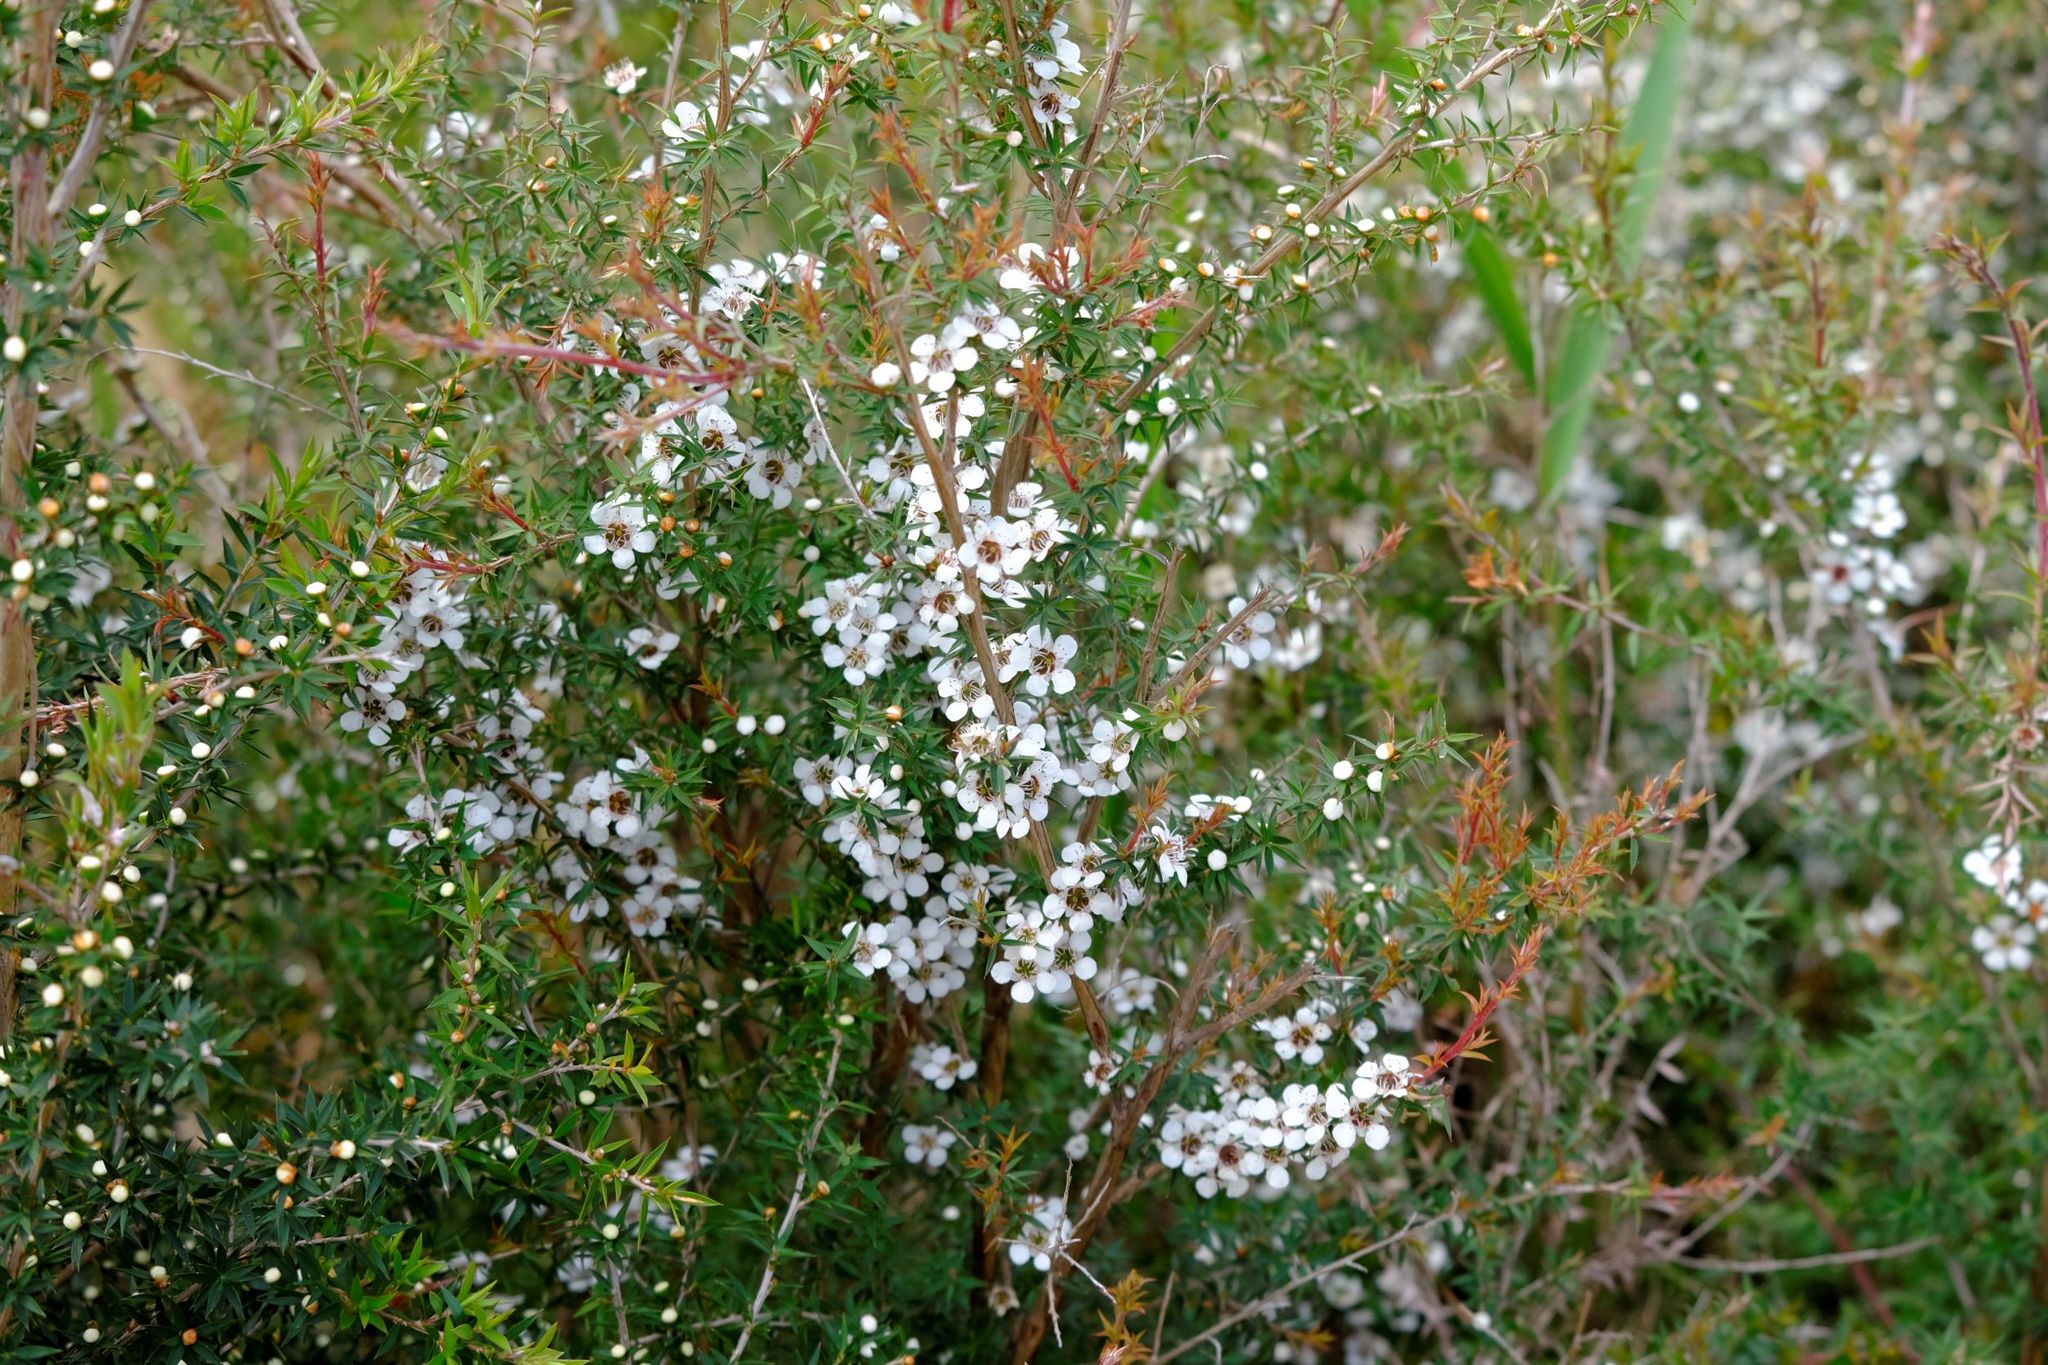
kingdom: Plantae
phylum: Tracheophyta
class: Magnoliopsida
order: Myrtales
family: Myrtaceae
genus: Leptospermum
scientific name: Leptospermum continentale
